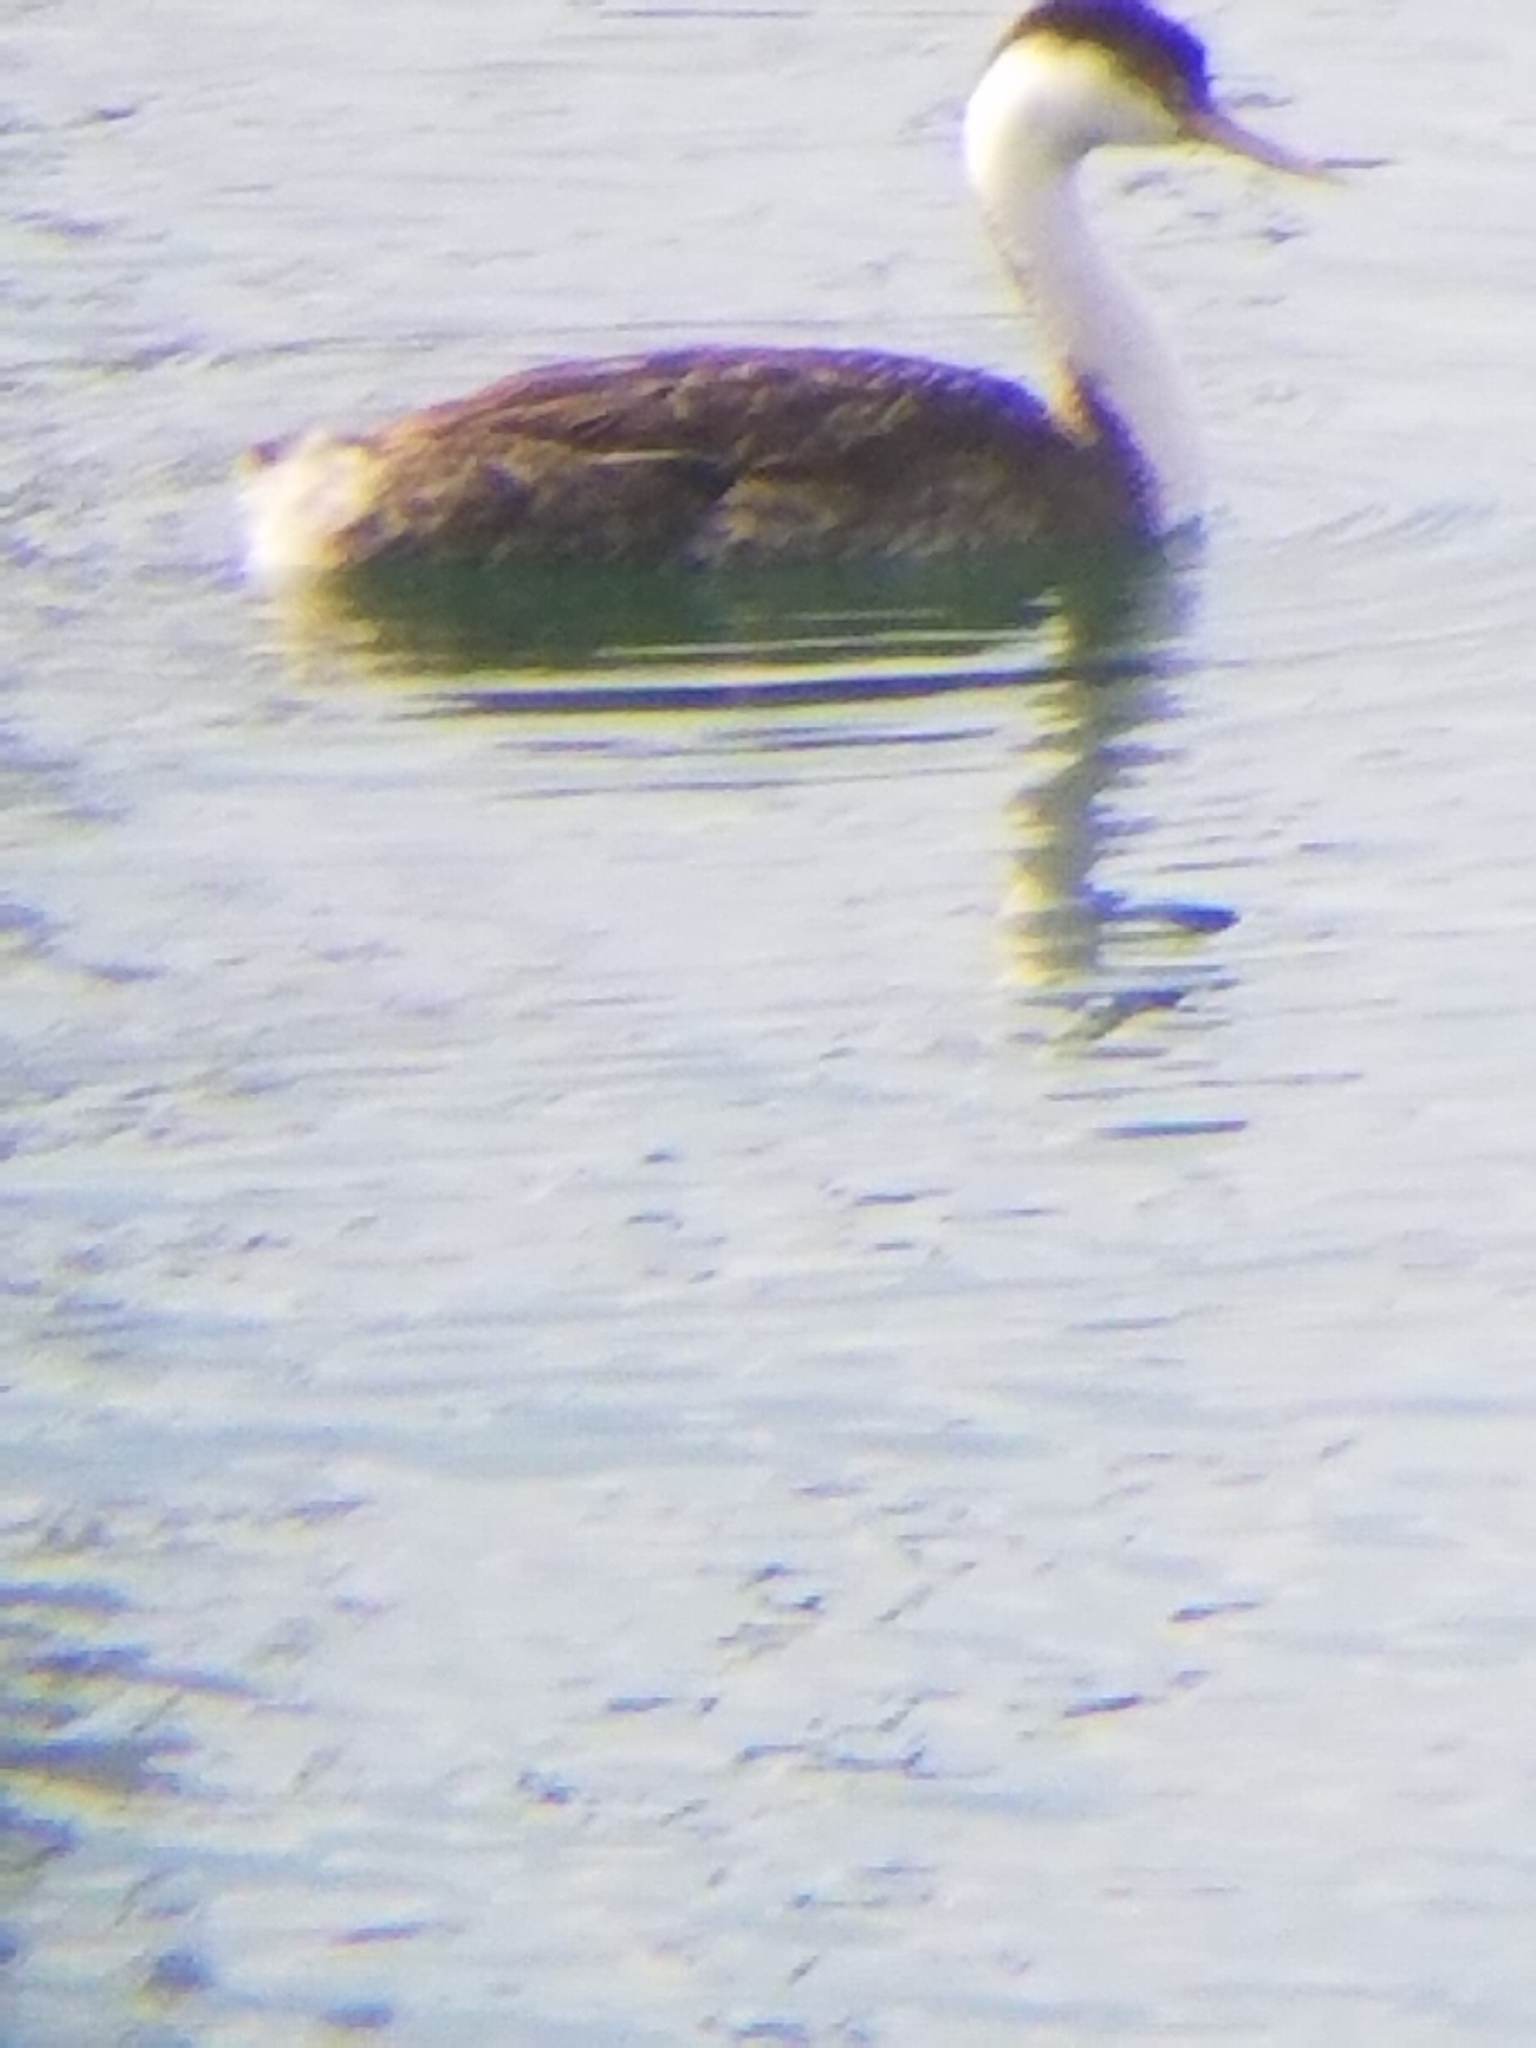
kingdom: Animalia
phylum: Chordata
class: Aves
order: Podicipediformes
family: Podicipedidae
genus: Aechmophorus
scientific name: Aechmophorus occidentalis
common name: Western grebe
